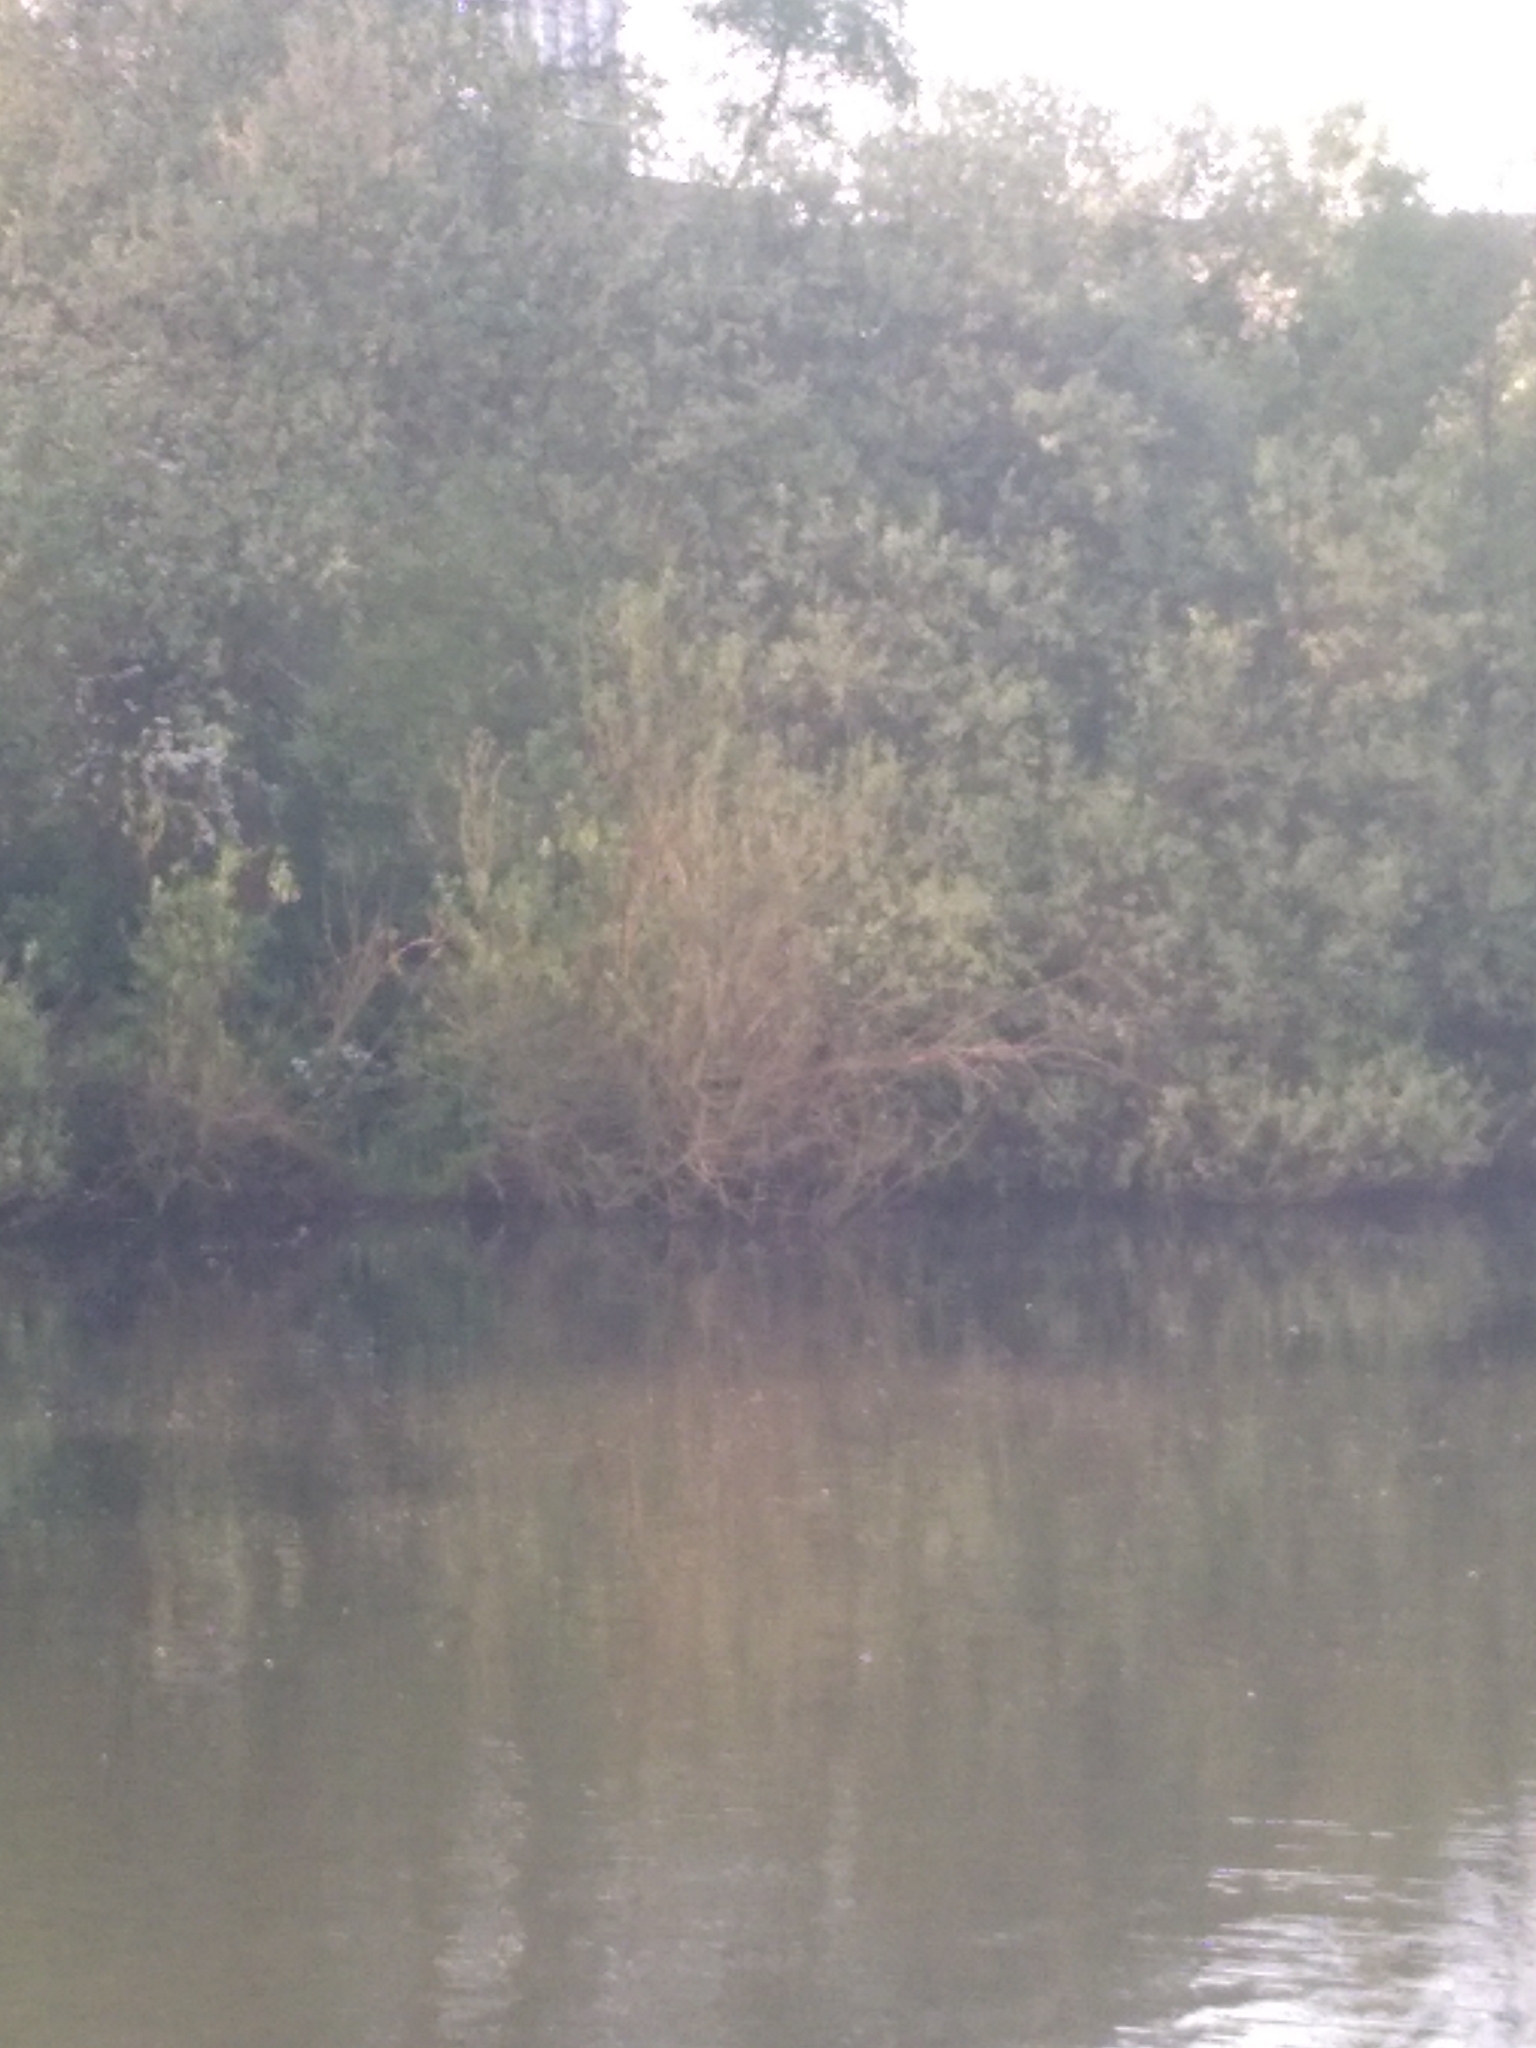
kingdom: Animalia
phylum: Chordata
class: Aves
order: Coraciiformes
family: Alcedinidae
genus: Alcedo
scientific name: Alcedo atthis
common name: Common kingfisher
